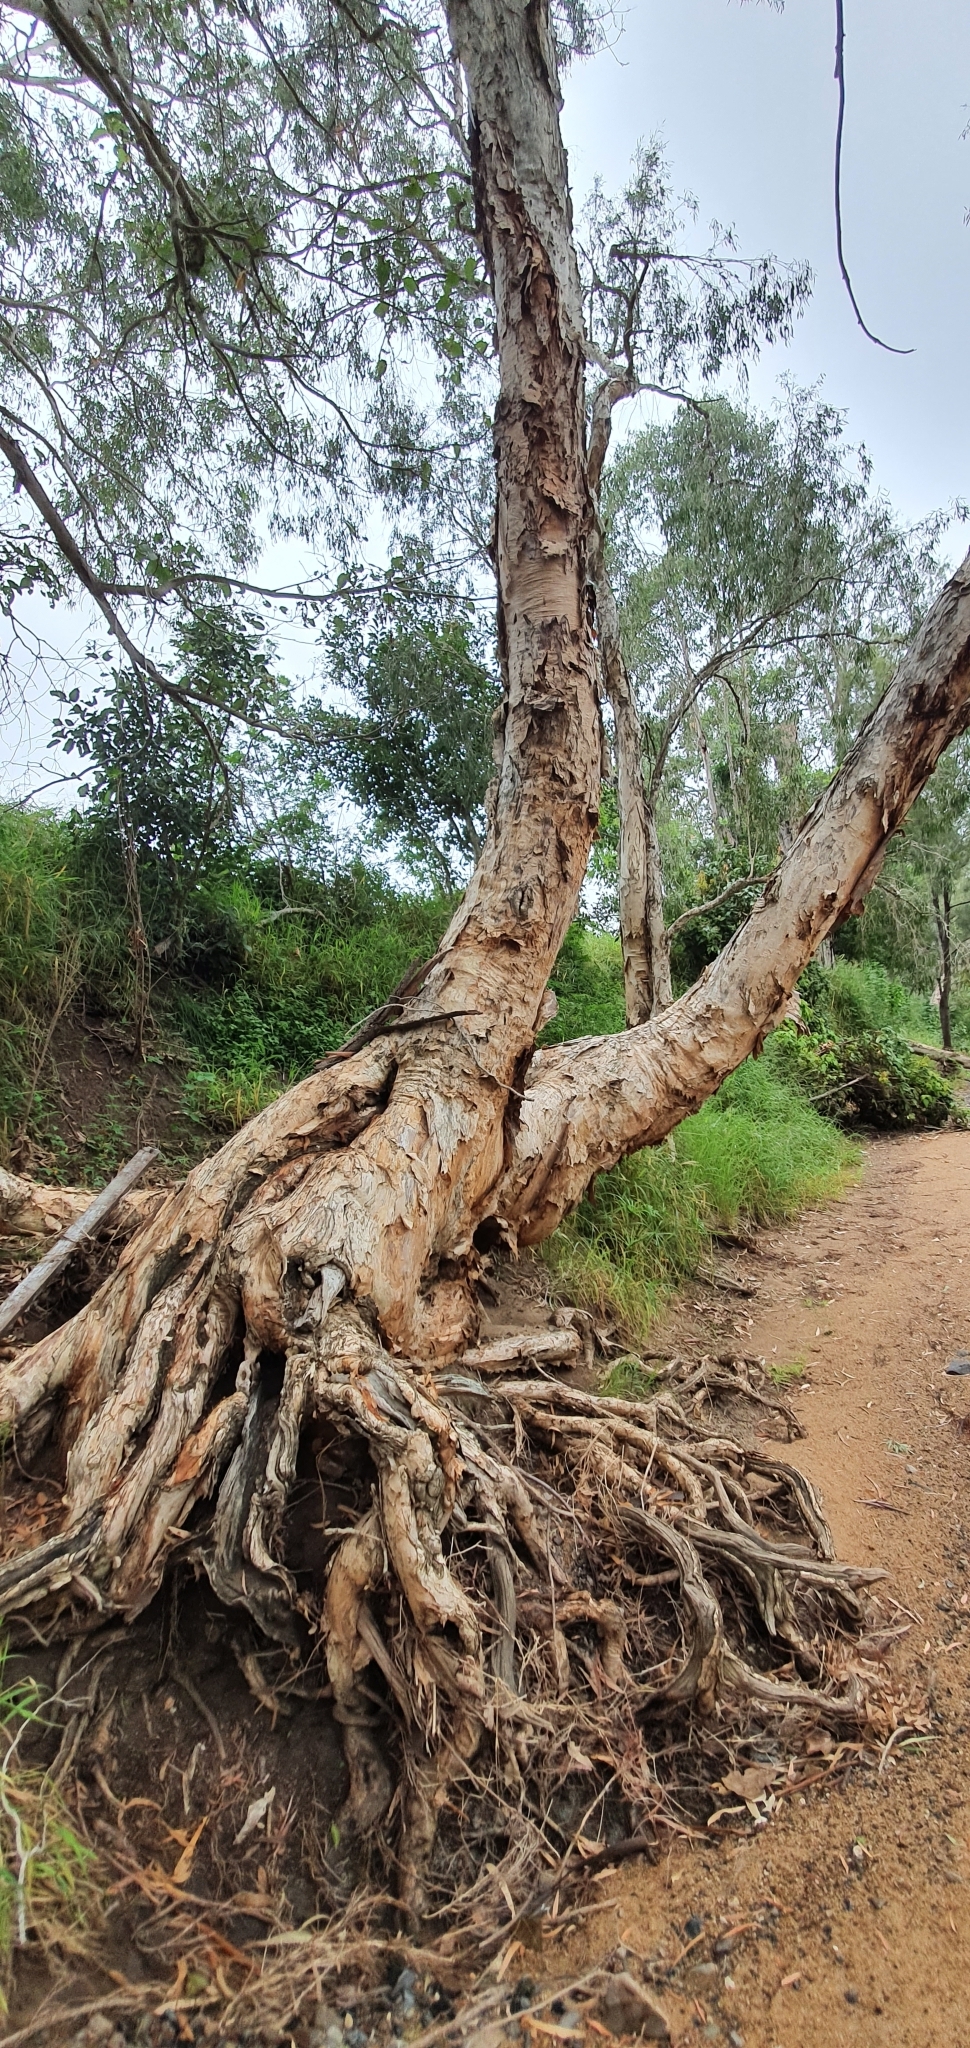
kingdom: Plantae
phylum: Tracheophyta
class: Magnoliopsida
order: Myrtales
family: Myrtaceae
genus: Melaleuca
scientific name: Melaleuca fluviatilis
